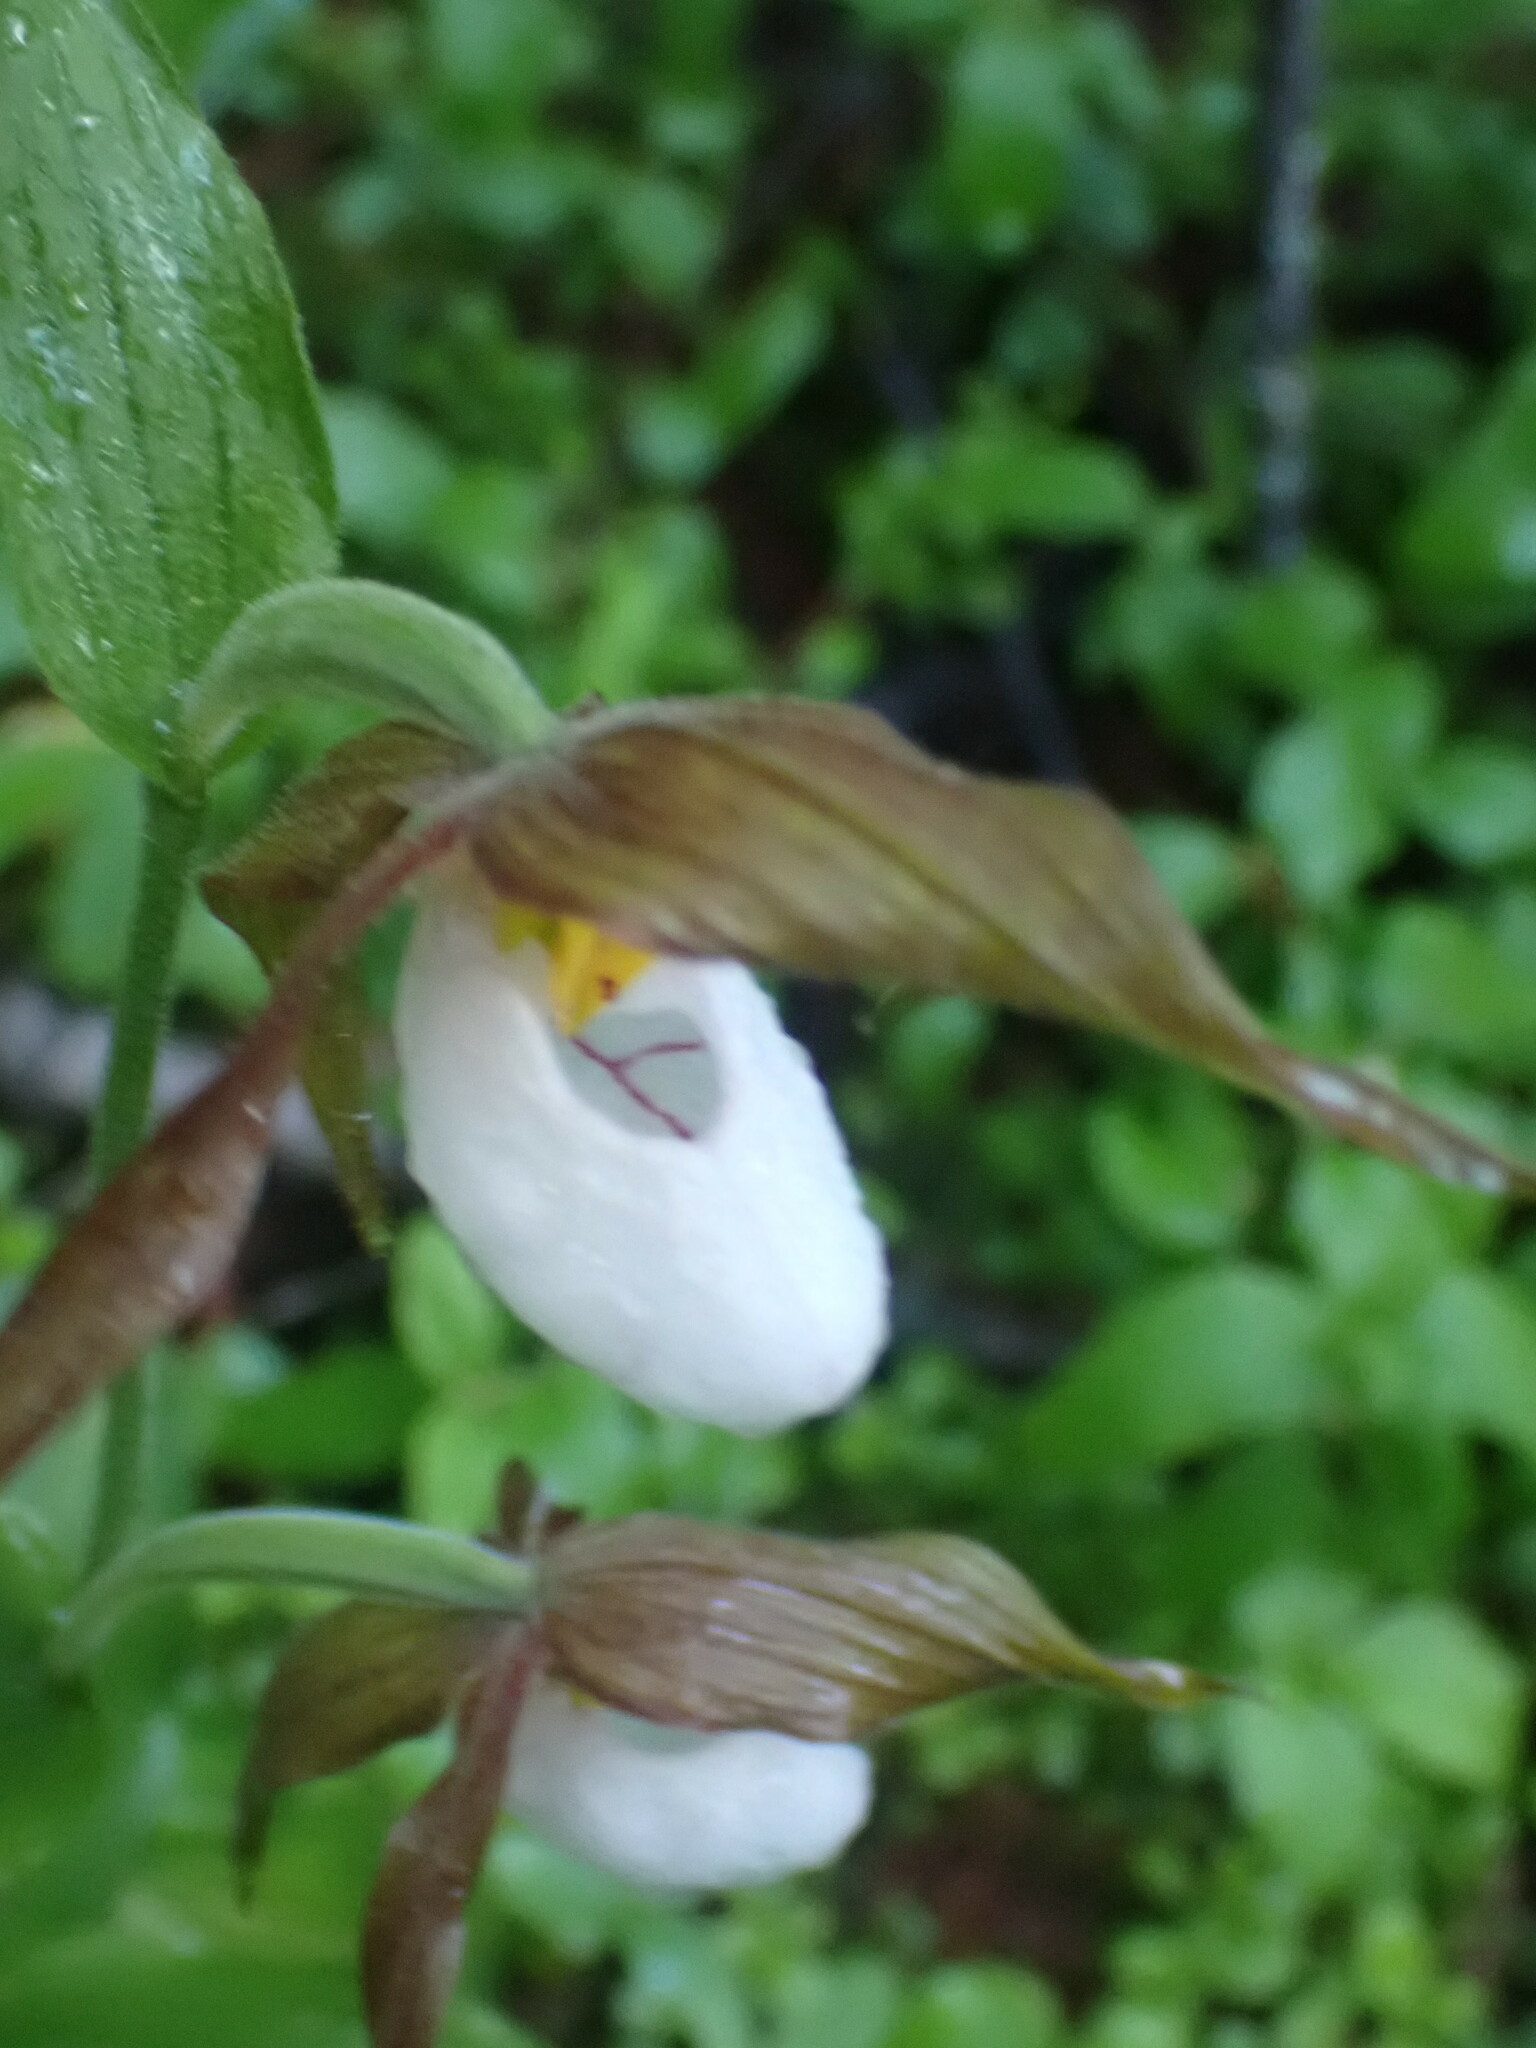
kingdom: Plantae
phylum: Tracheophyta
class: Liliopsida
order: Asparagales
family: Orchidaceae
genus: Cypripedium
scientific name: Cypripedium montanum
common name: Mountain lady's-slipper
